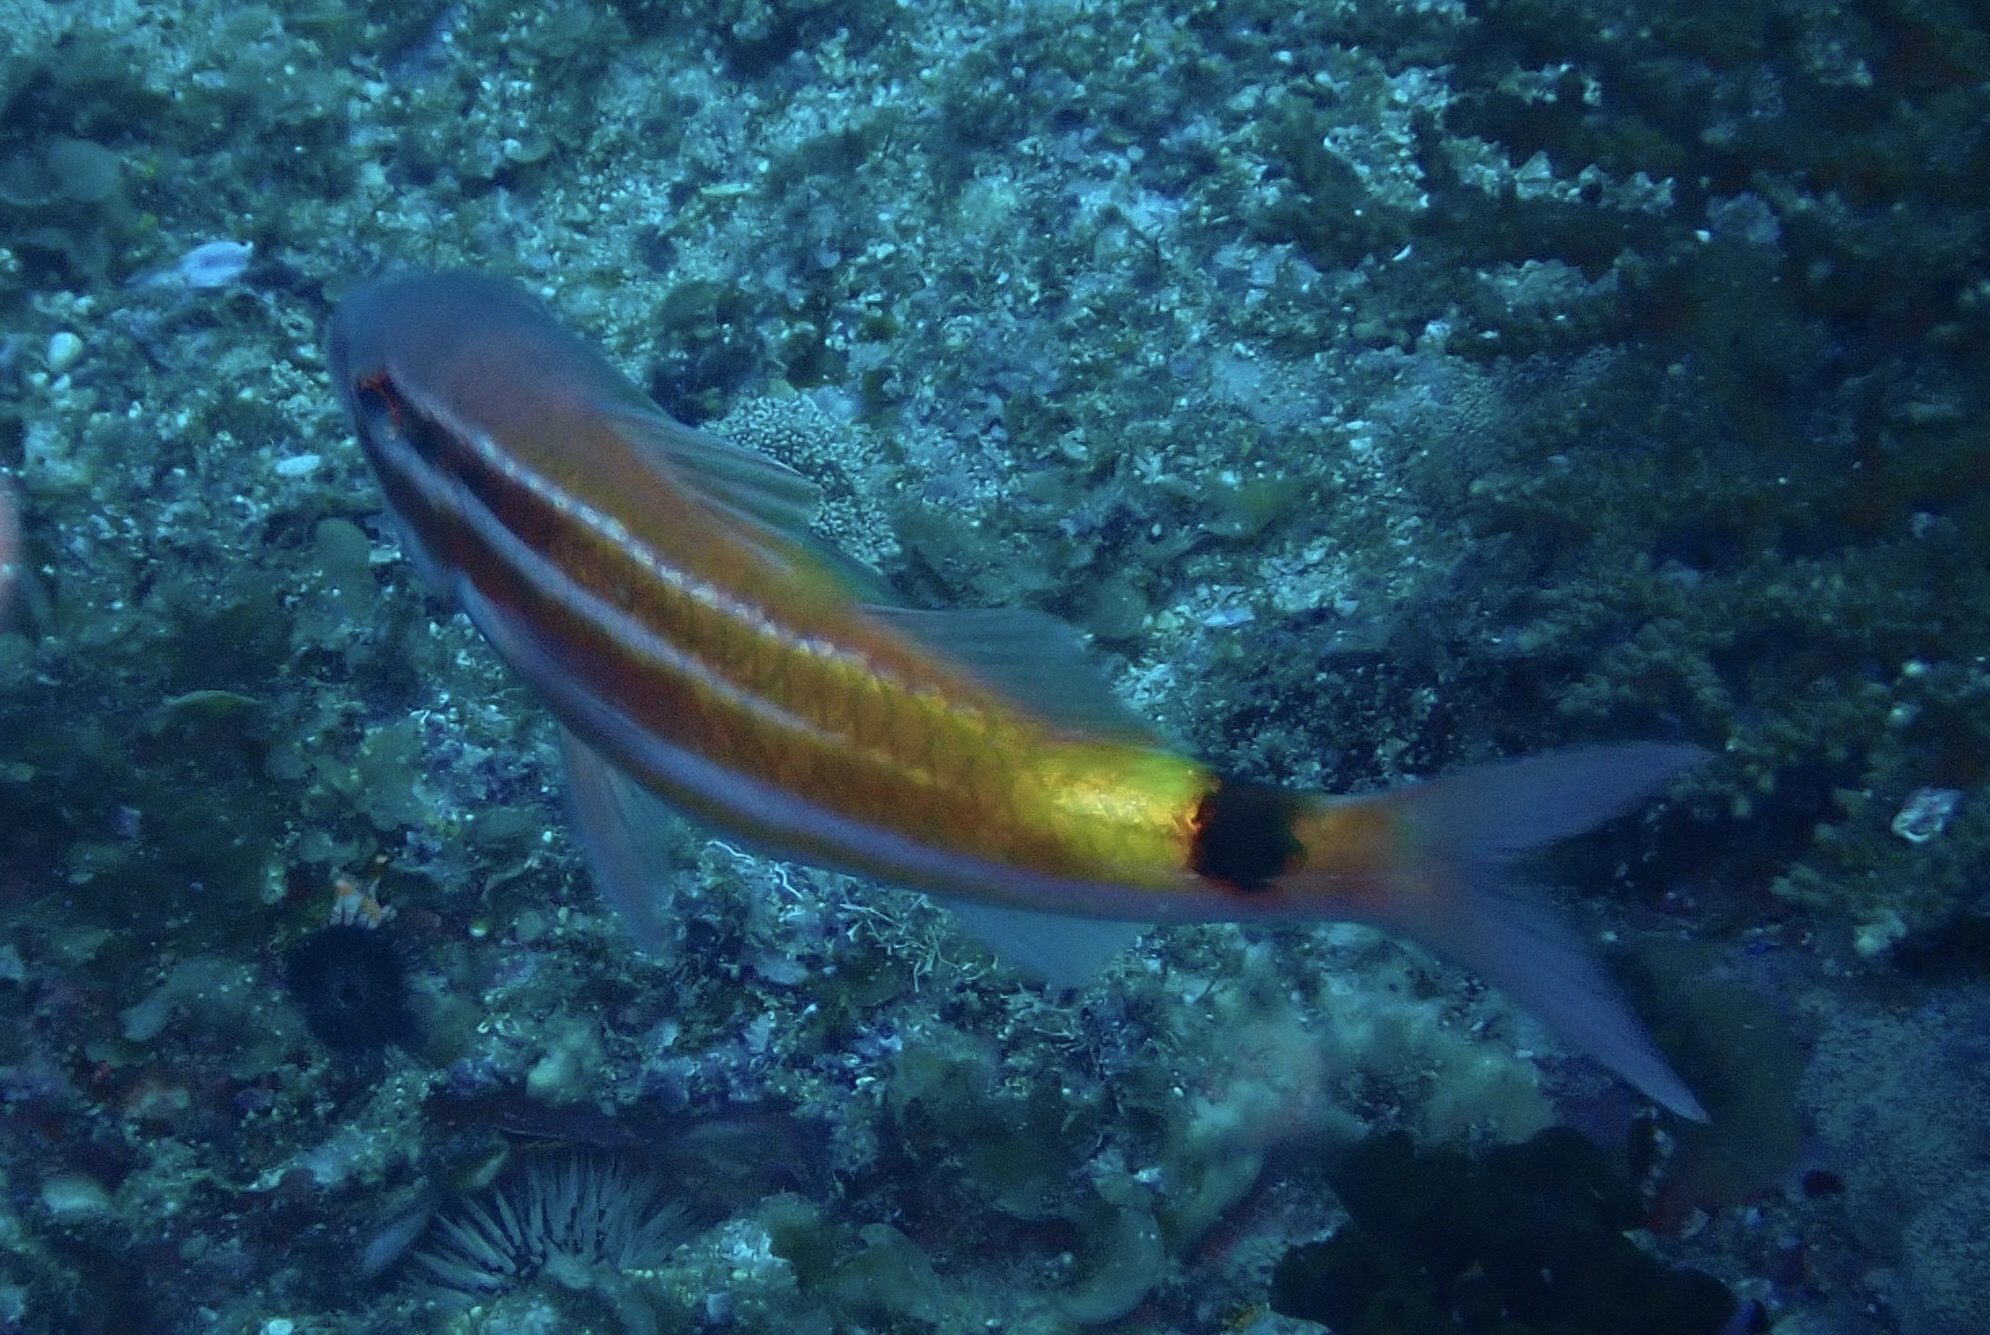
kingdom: Animalia
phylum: Chordata
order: Perciformes
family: Mullidae
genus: Parupeneus
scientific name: Parupeneus spilurus
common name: Blackspot goatfish
